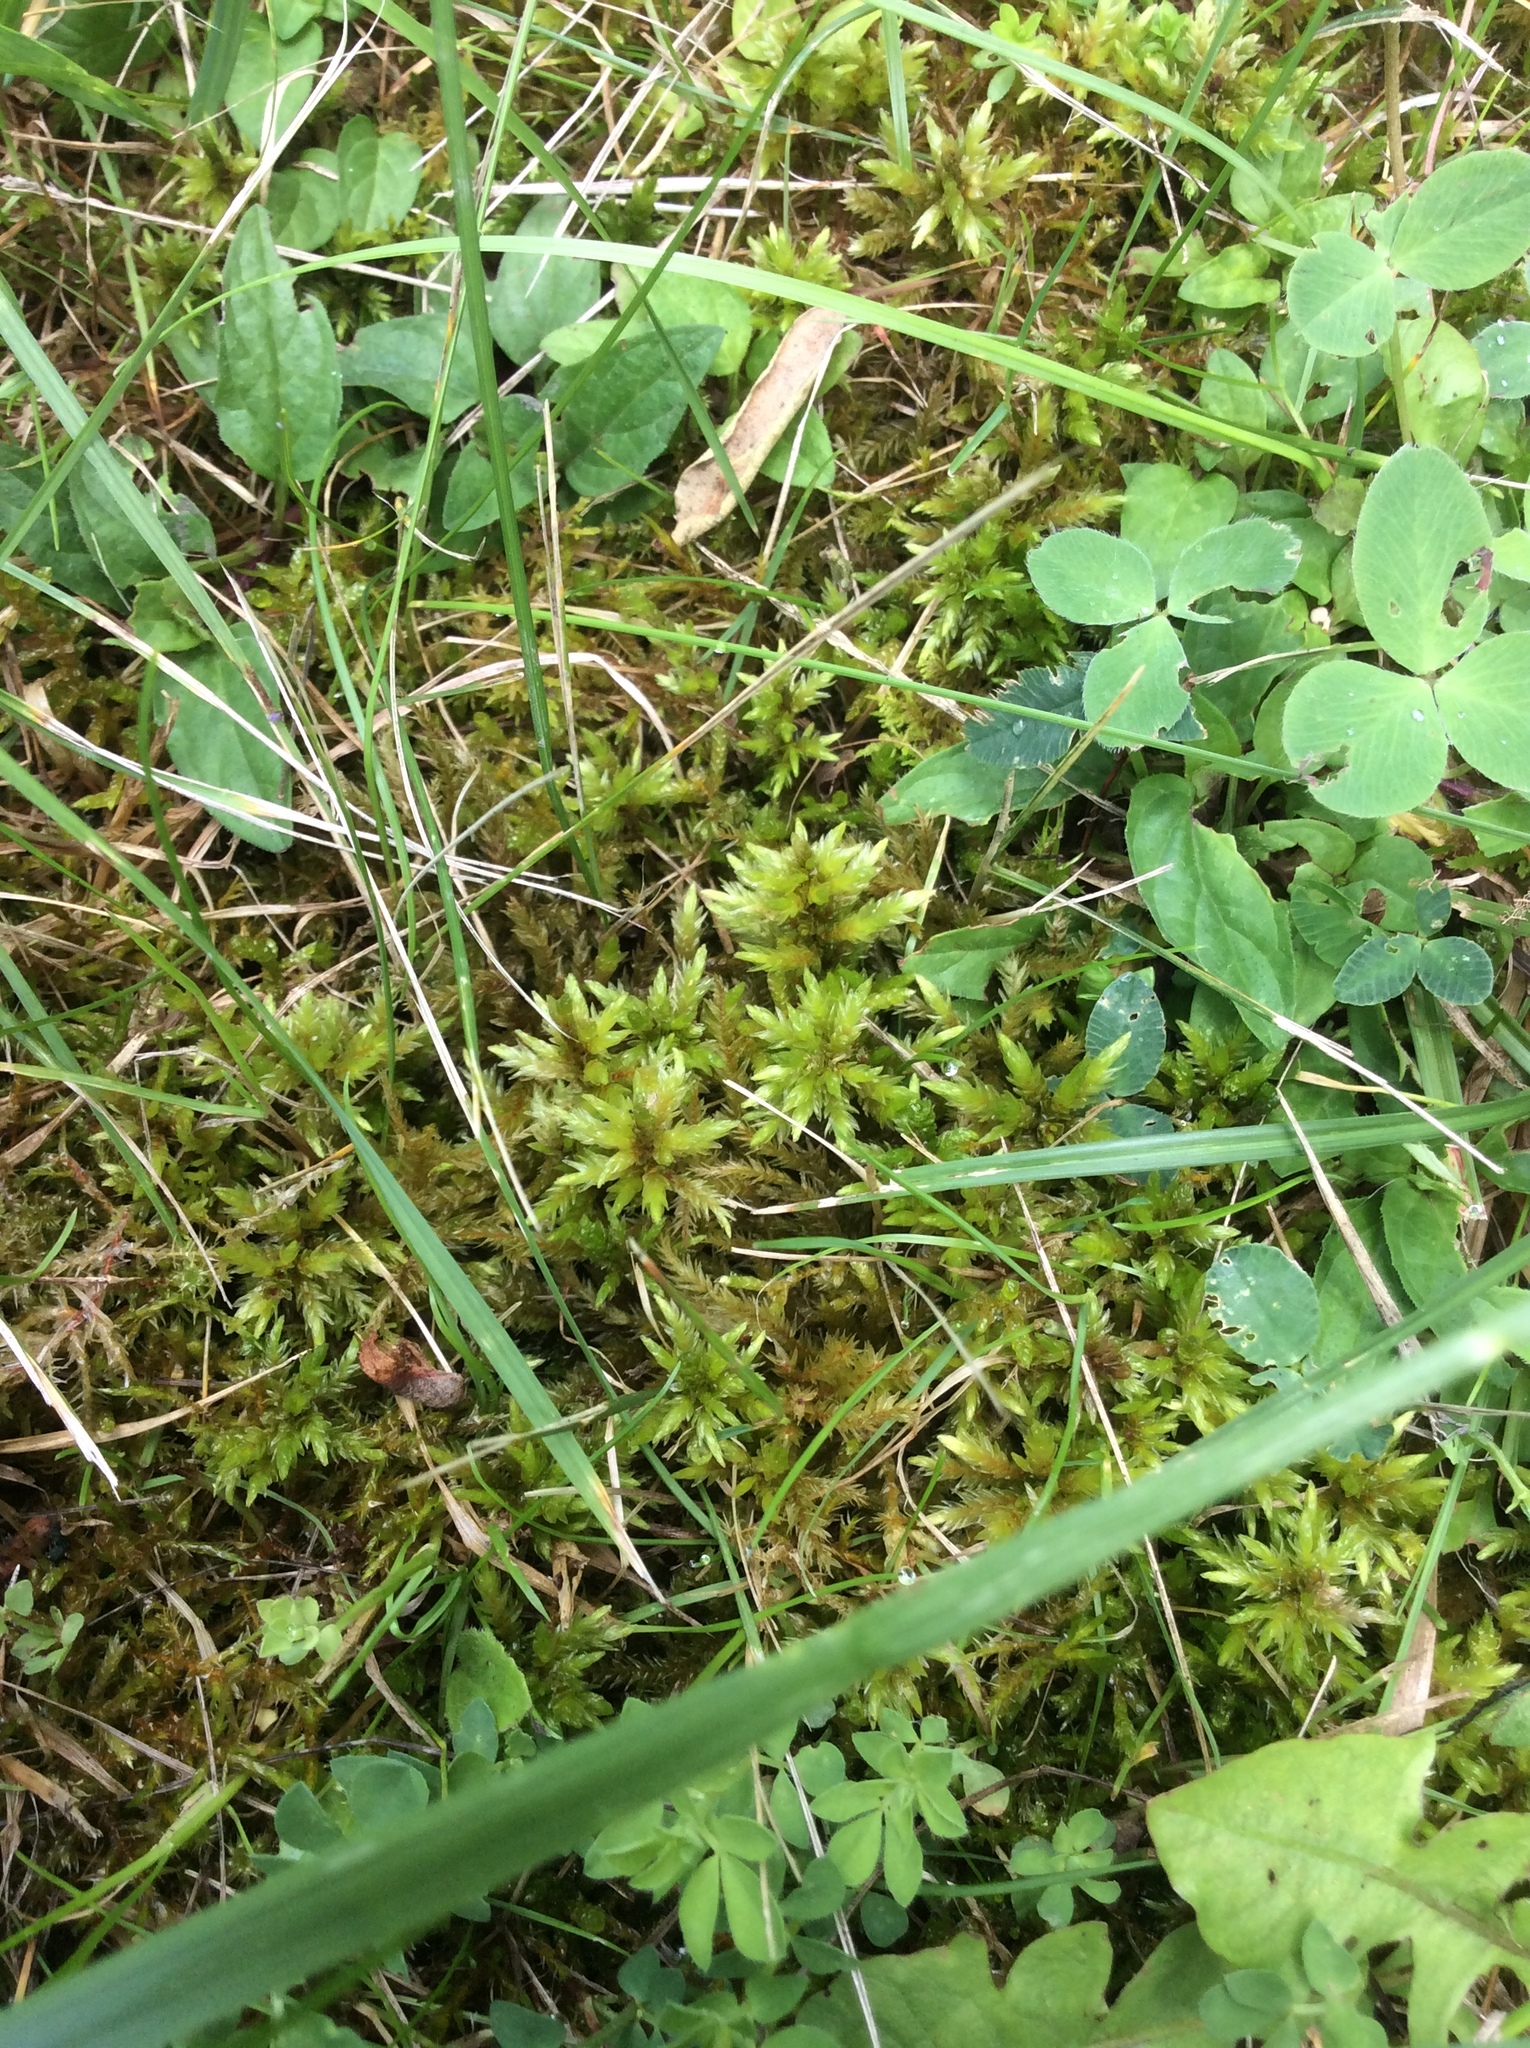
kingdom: Plantae
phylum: Bryophyta
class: Bryopsida
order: Hypnales
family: Climaciaceae
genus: Climacium
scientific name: Climacium dendroides
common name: Northern tree moss
